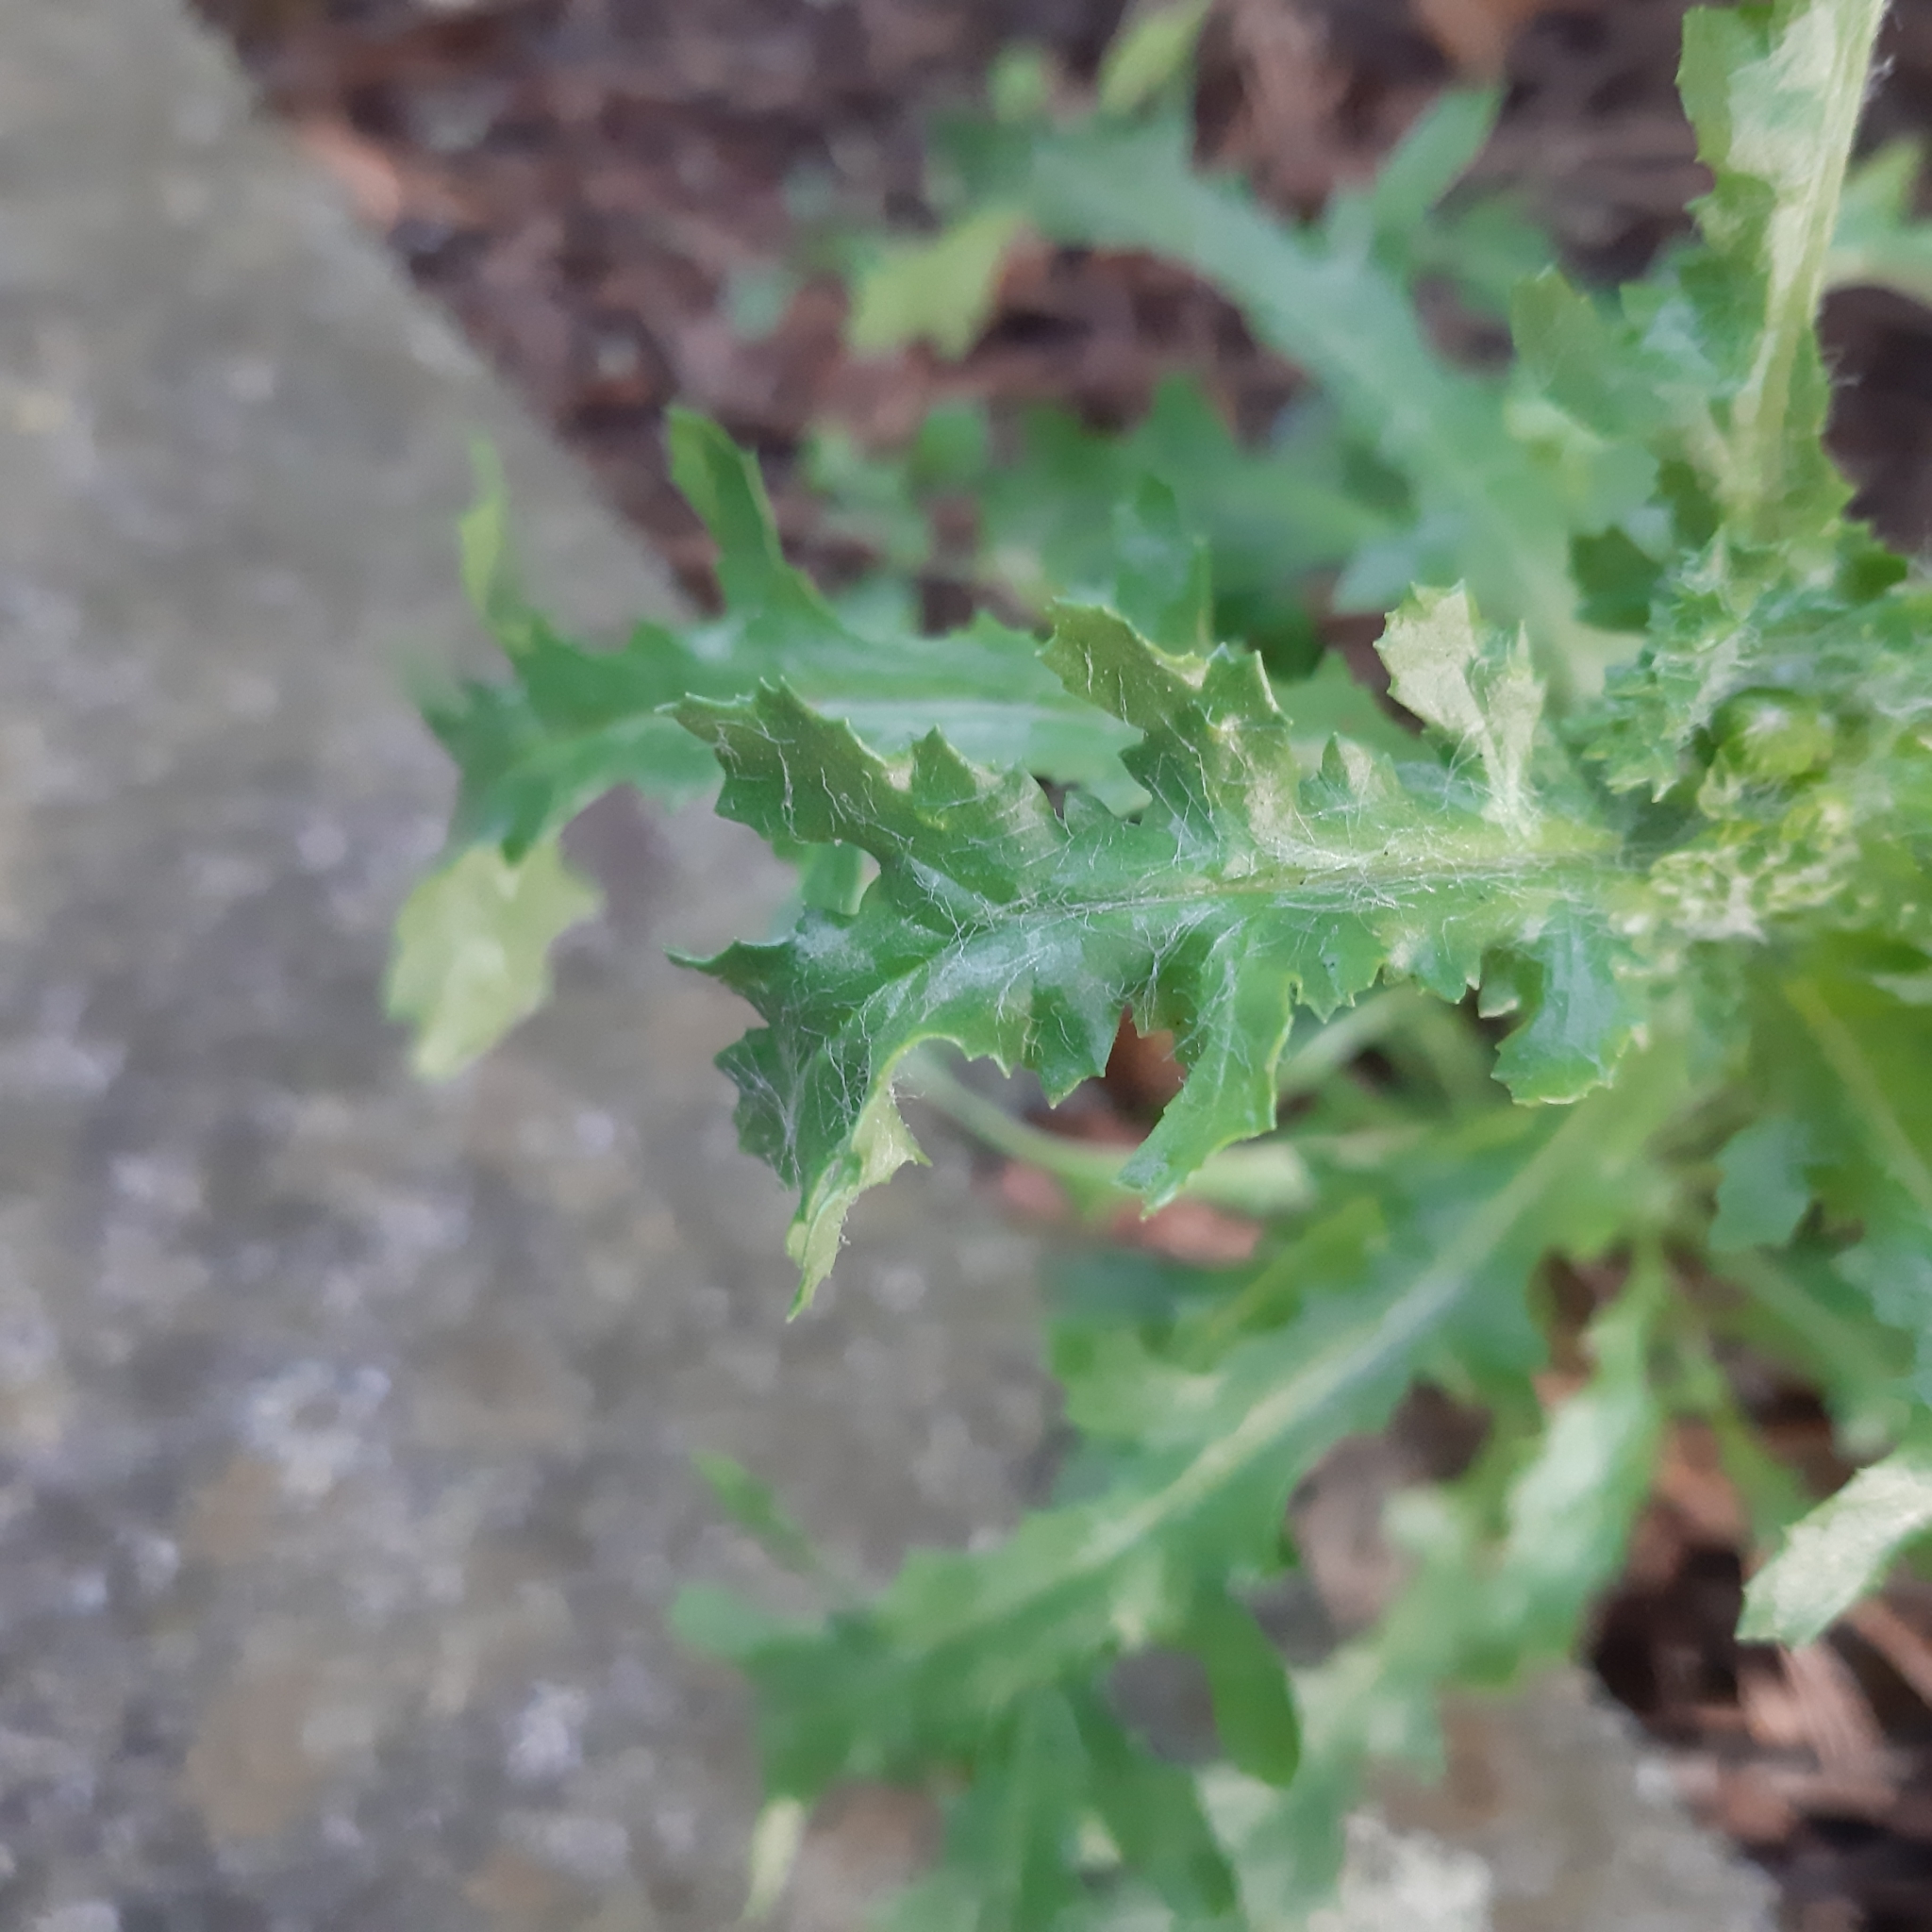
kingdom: Plantae
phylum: Tracheophyta
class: Magnoliopsida
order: Asterales
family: Asteraceae
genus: Senecio
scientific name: Senecio vulgaris
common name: Old-man-in-the-spring
